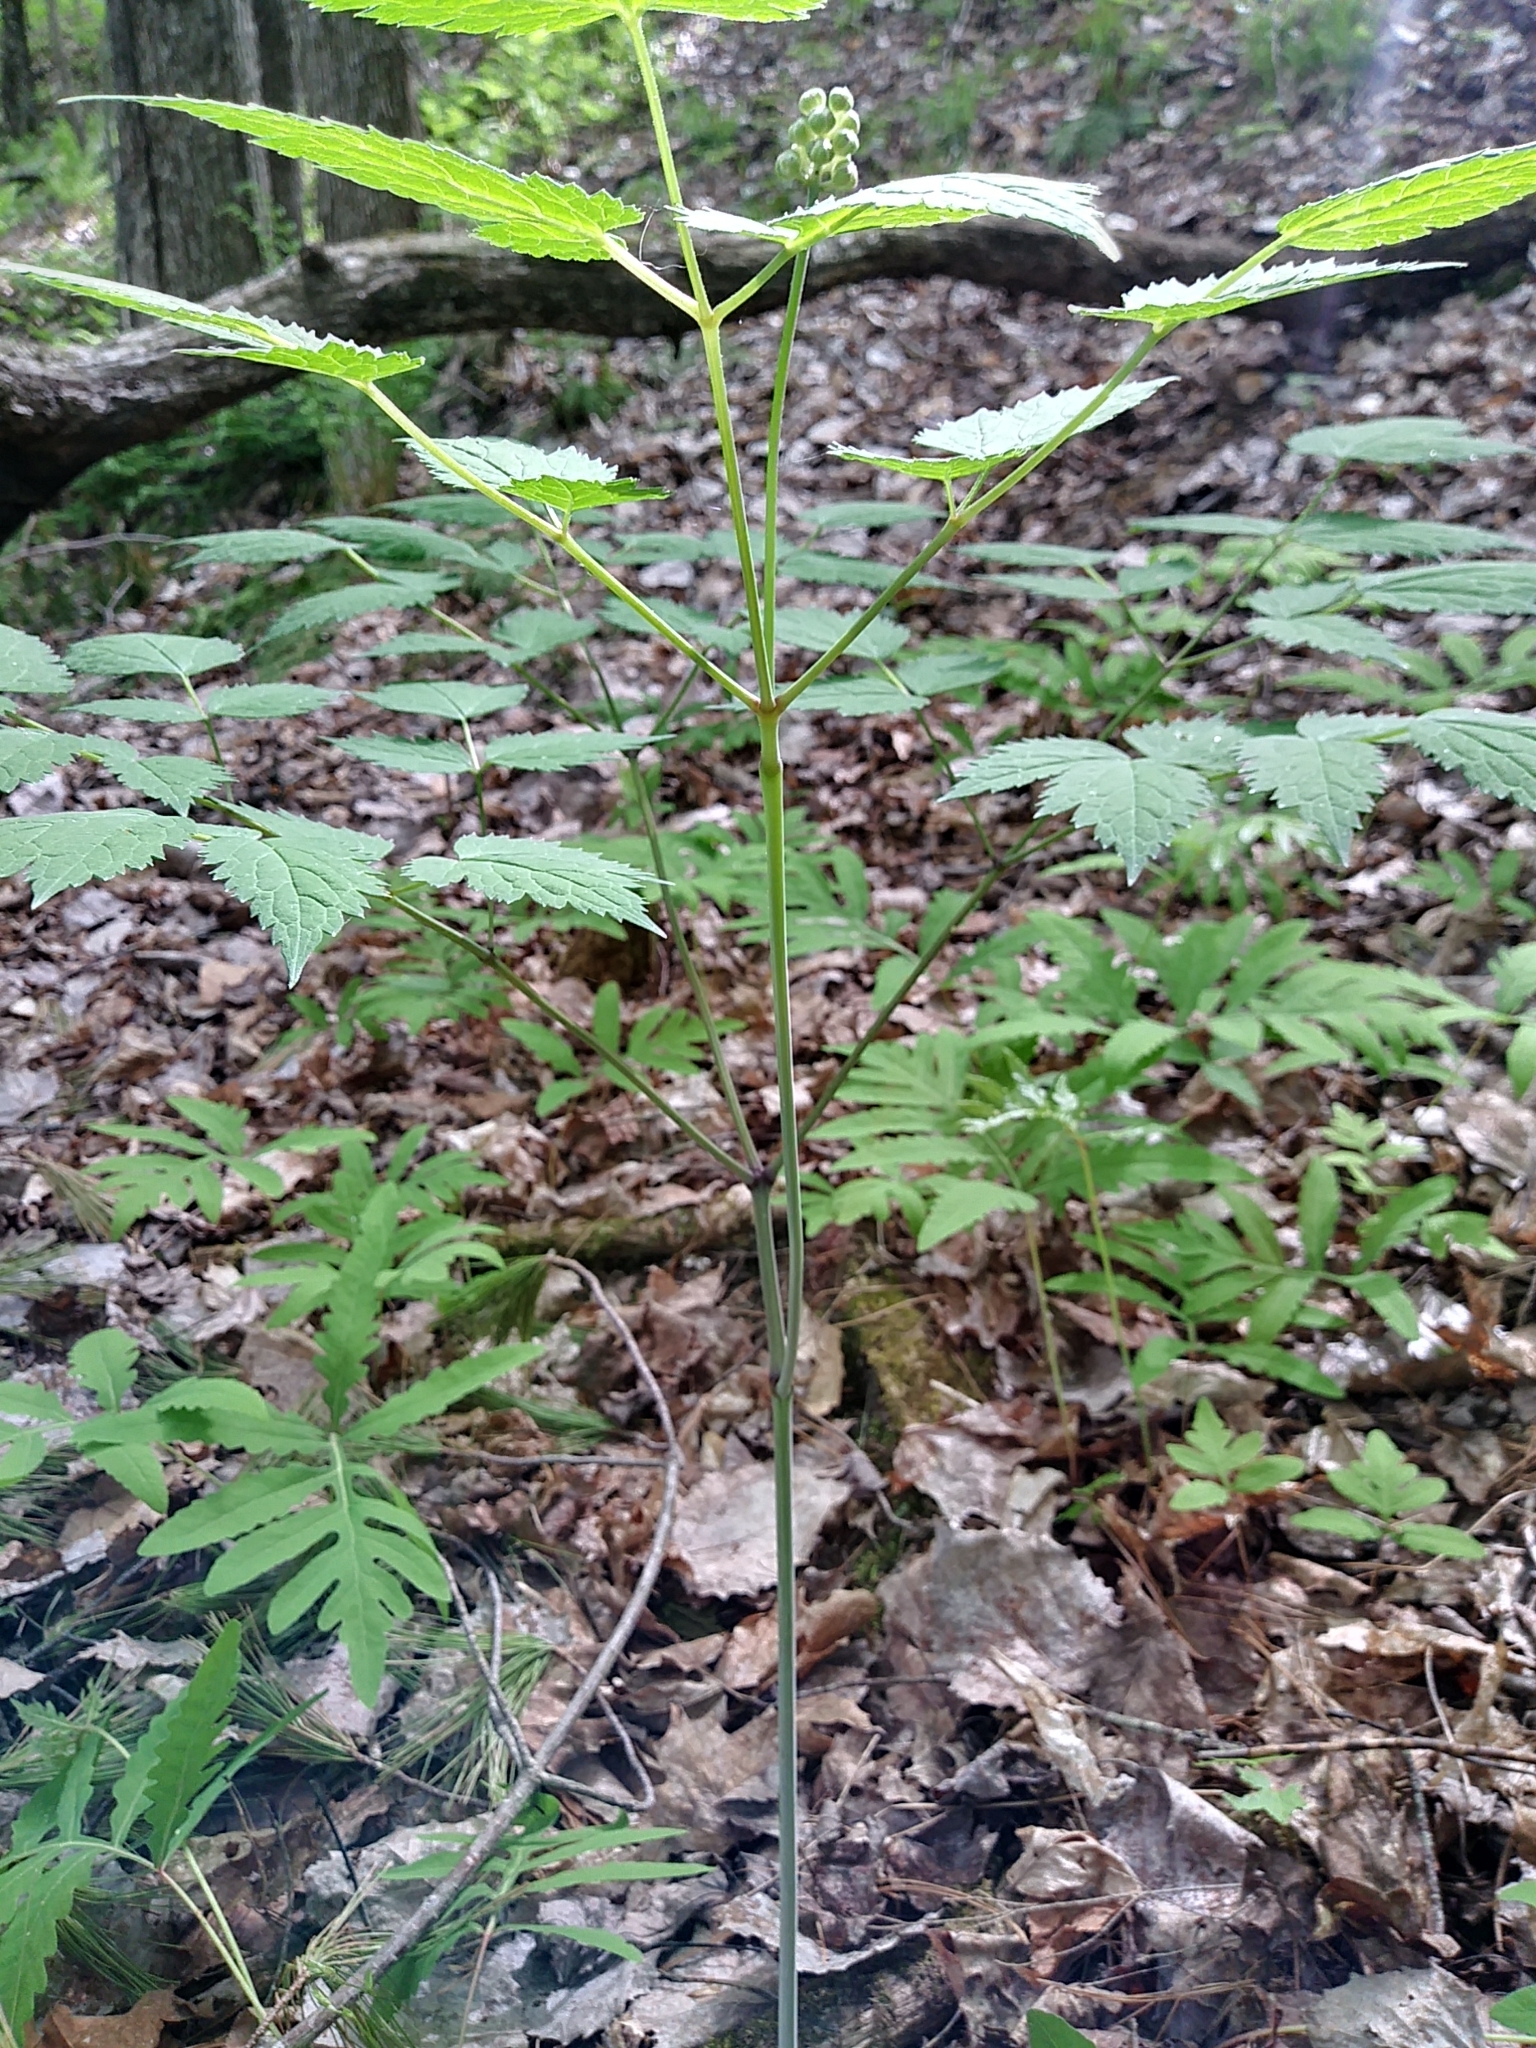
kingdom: Plantae
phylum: Tracheophyta
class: Magnoliopsida
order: Ranunculales
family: Ranunculaceae
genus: Actaea
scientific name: Actaea pachypoda
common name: Doll's-eyes
